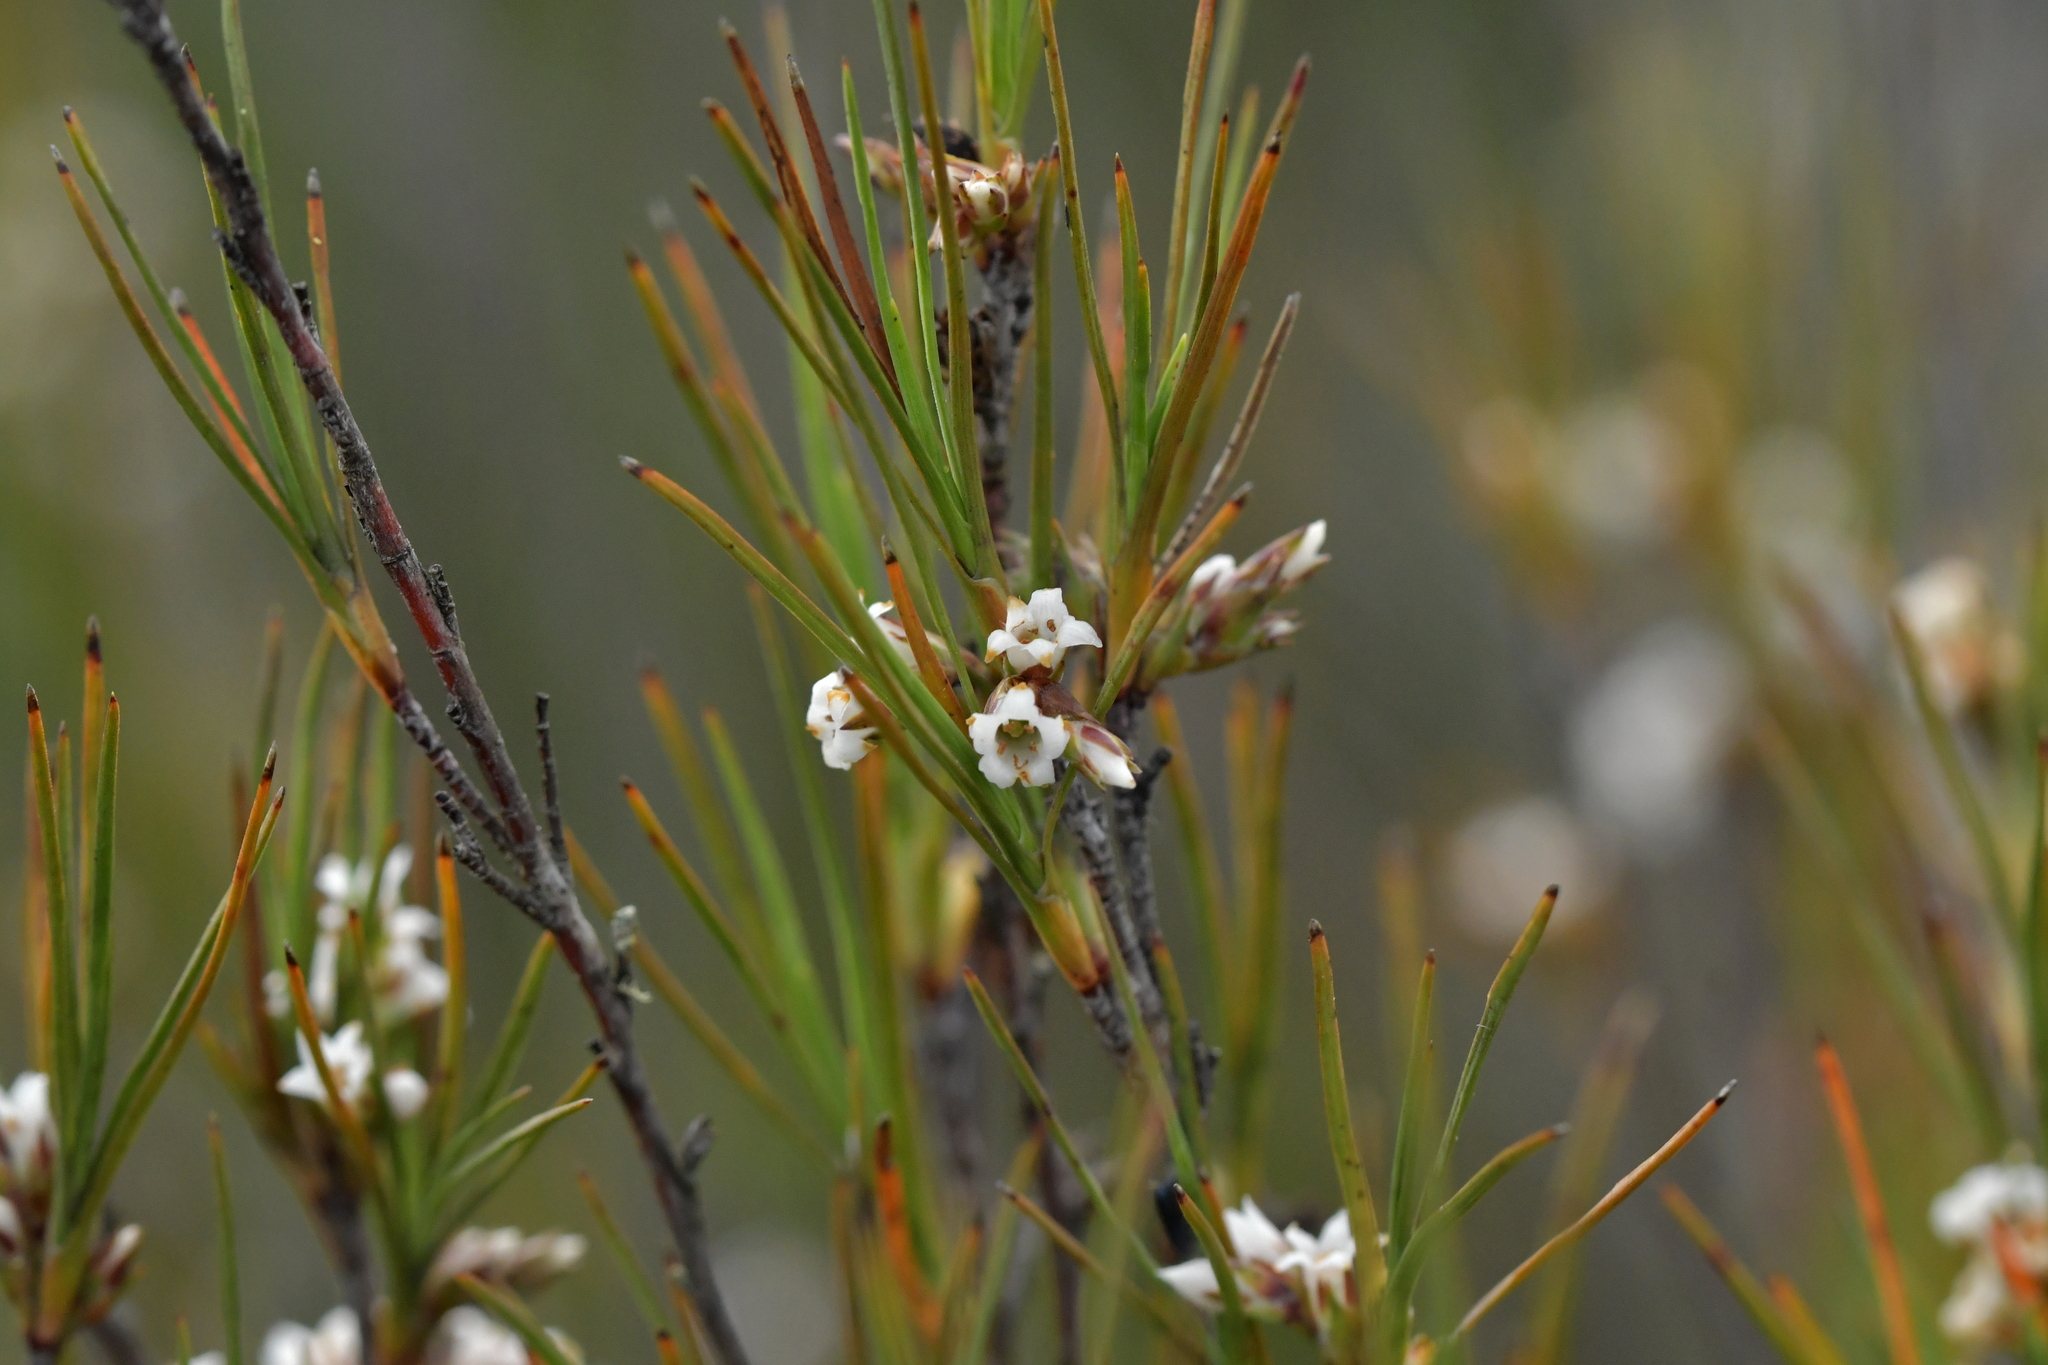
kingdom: Plantae
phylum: Tracheophyta
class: Magnoliopsida
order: Ericales
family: Ericaceae
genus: Dracophyllum
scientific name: Dracophyllum filifolium
